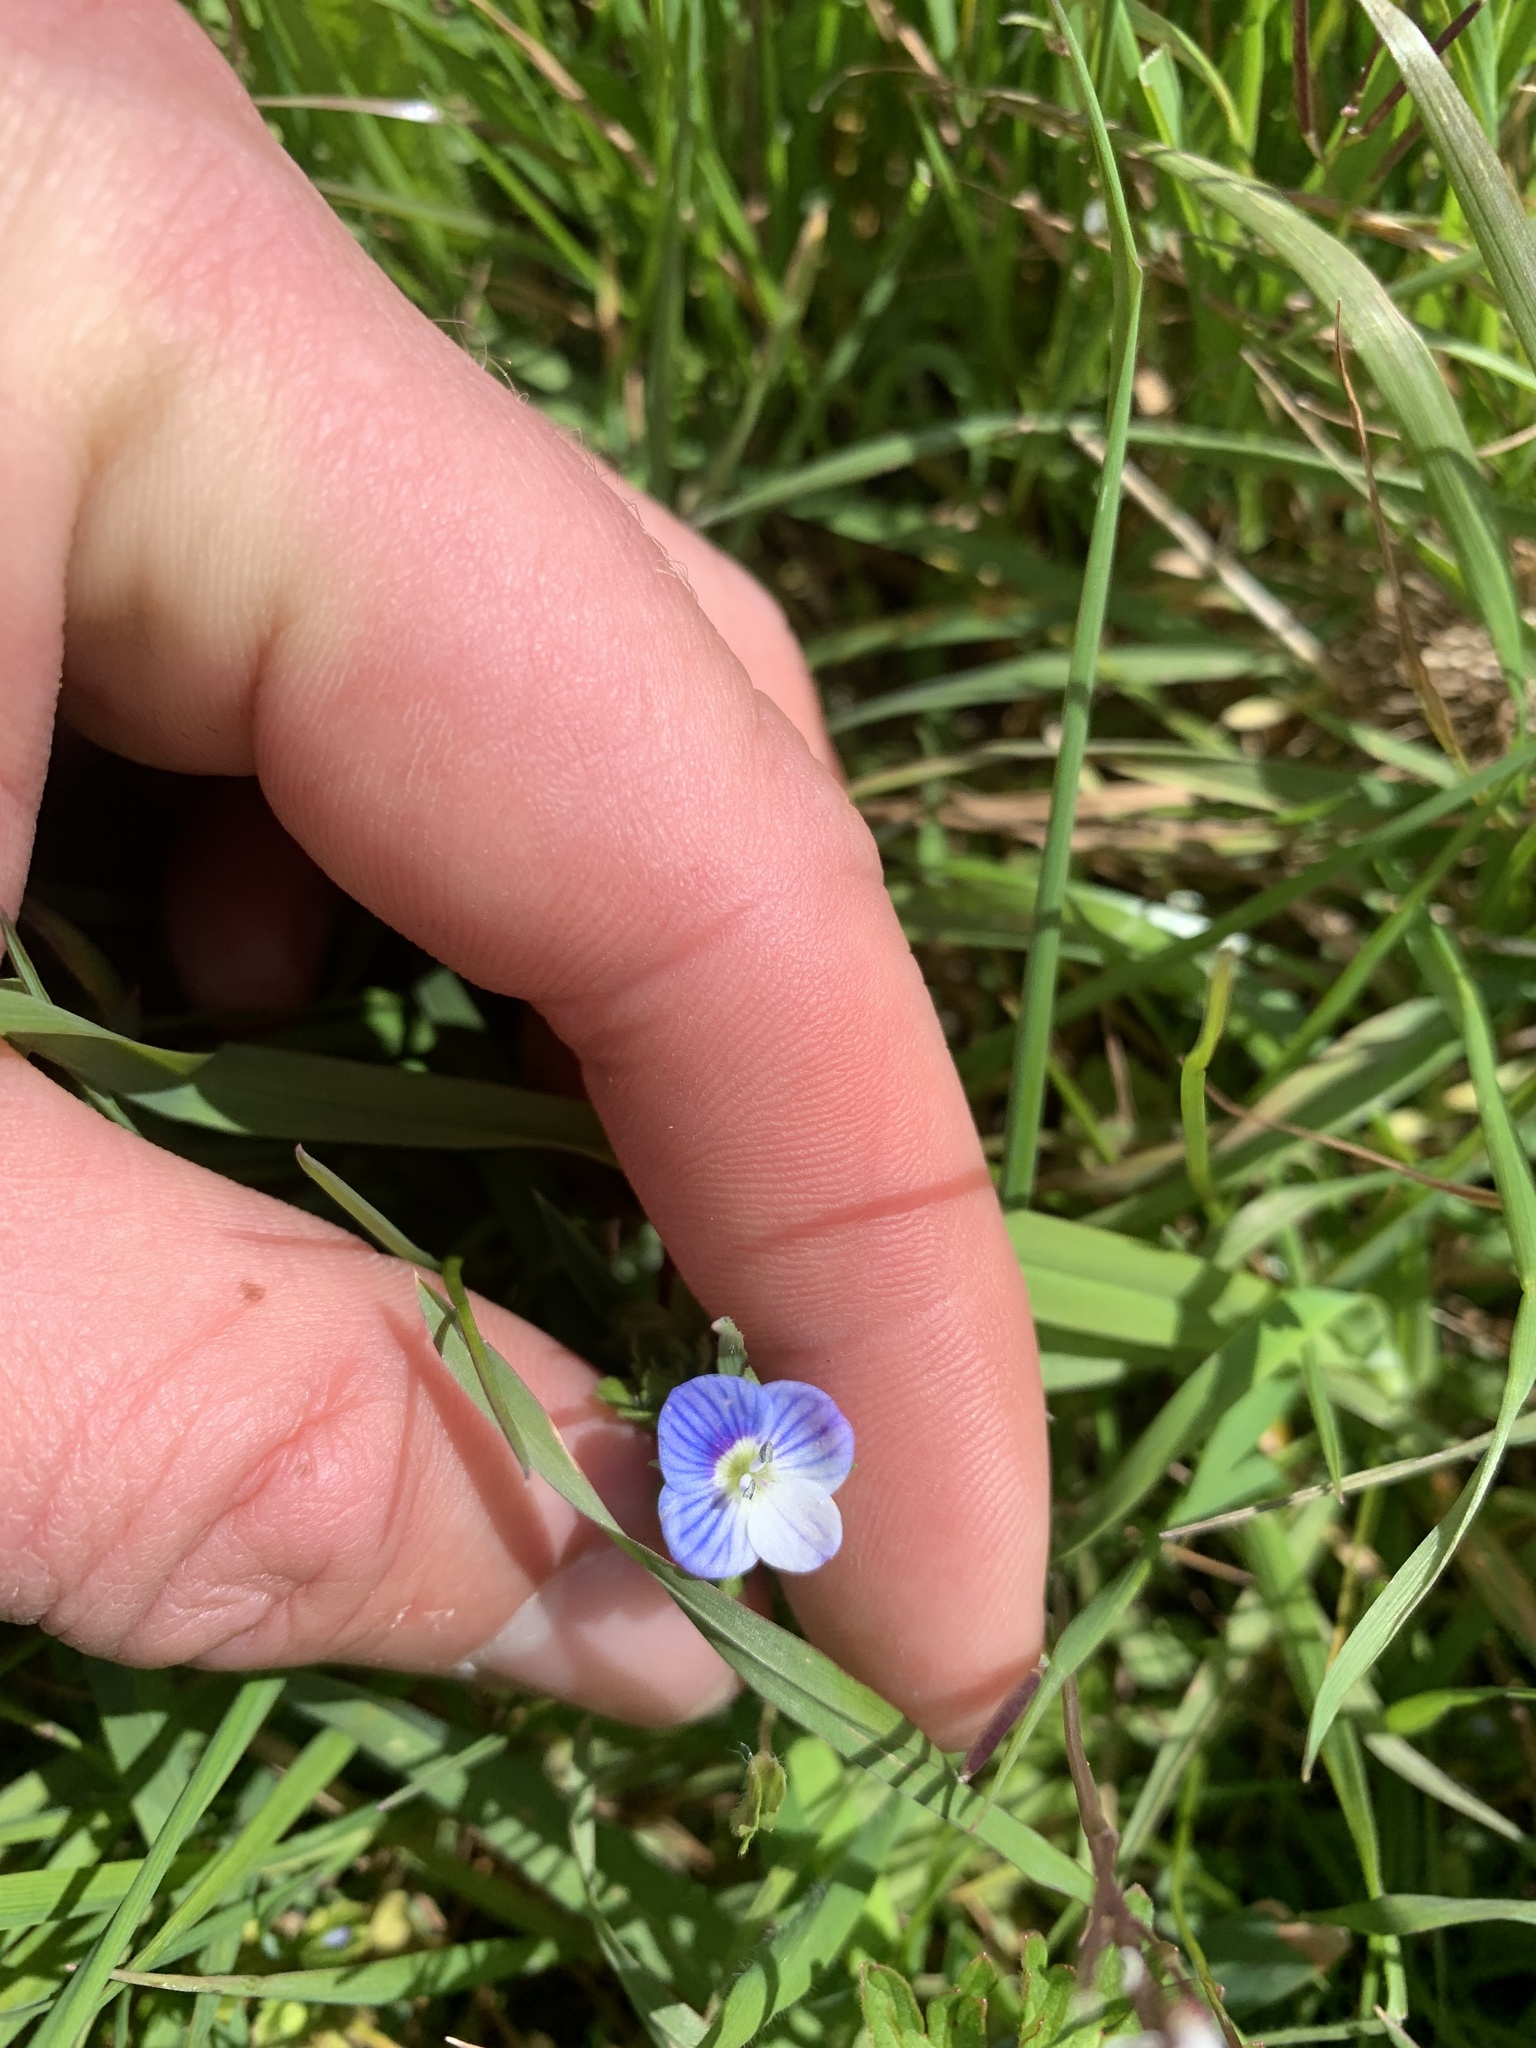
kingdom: Plantae
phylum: Tracheophyta
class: Magnoliopsida
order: Lamiales
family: Plantaginaceae
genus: Veronica
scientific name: Veronica persica
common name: Common field-speedwell
